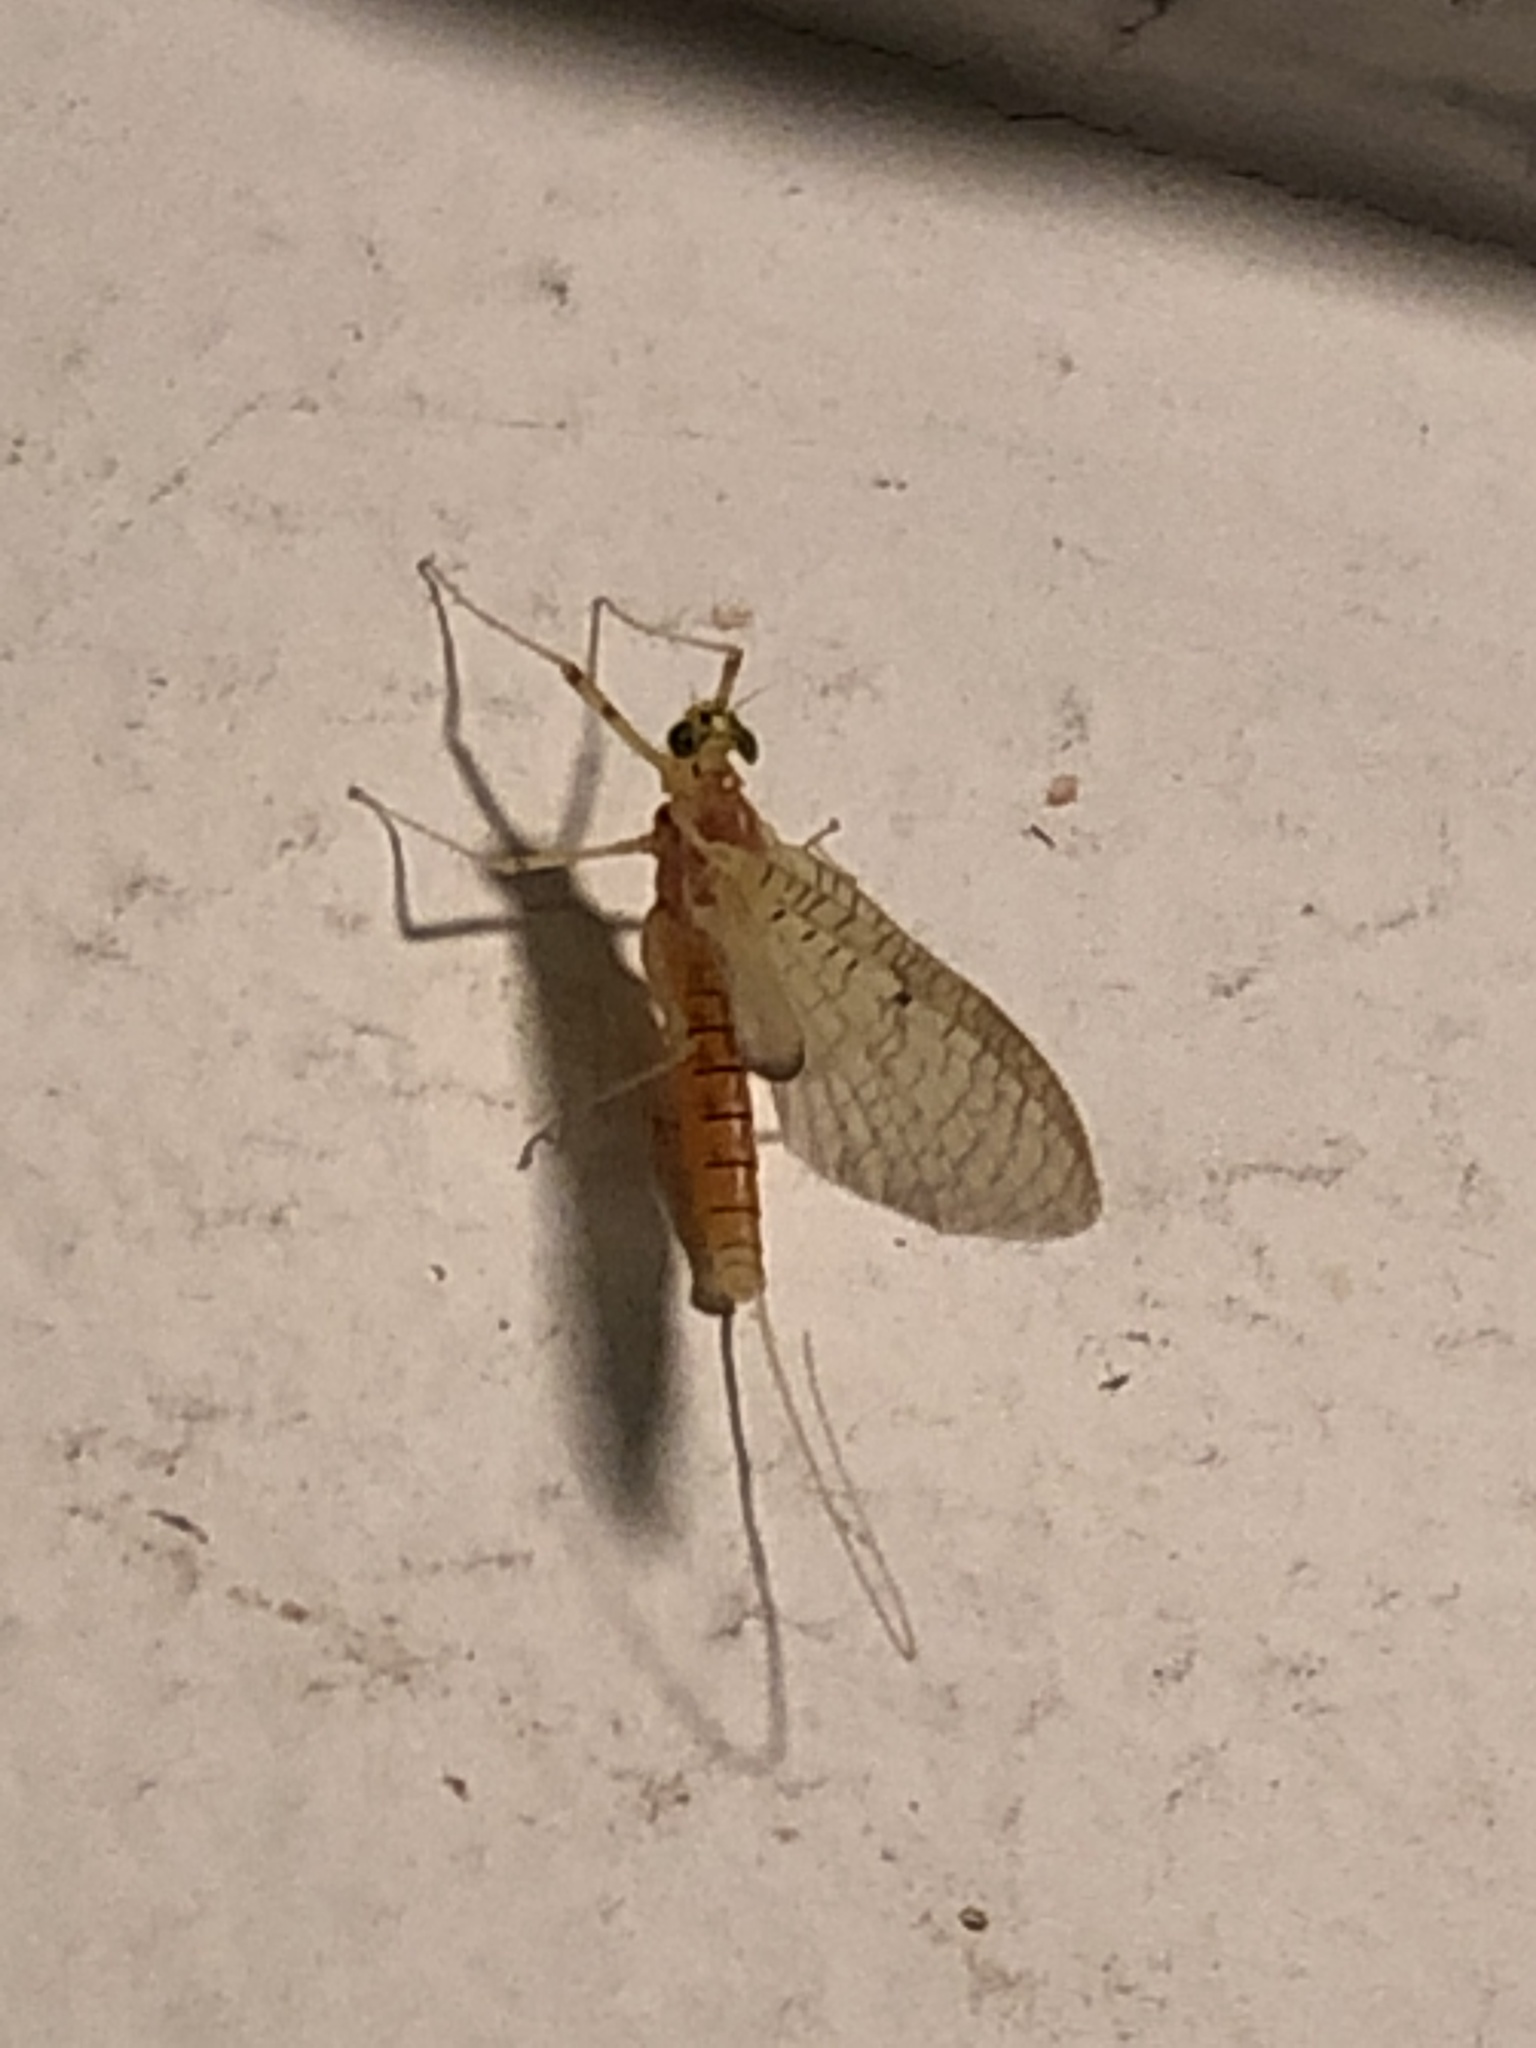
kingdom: Animalia
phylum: Arthropoda
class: Insecta
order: Ephemeroptera
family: Heptageniidae
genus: Stenacron
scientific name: Stenacron interpunctatum
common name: Orange cahill
